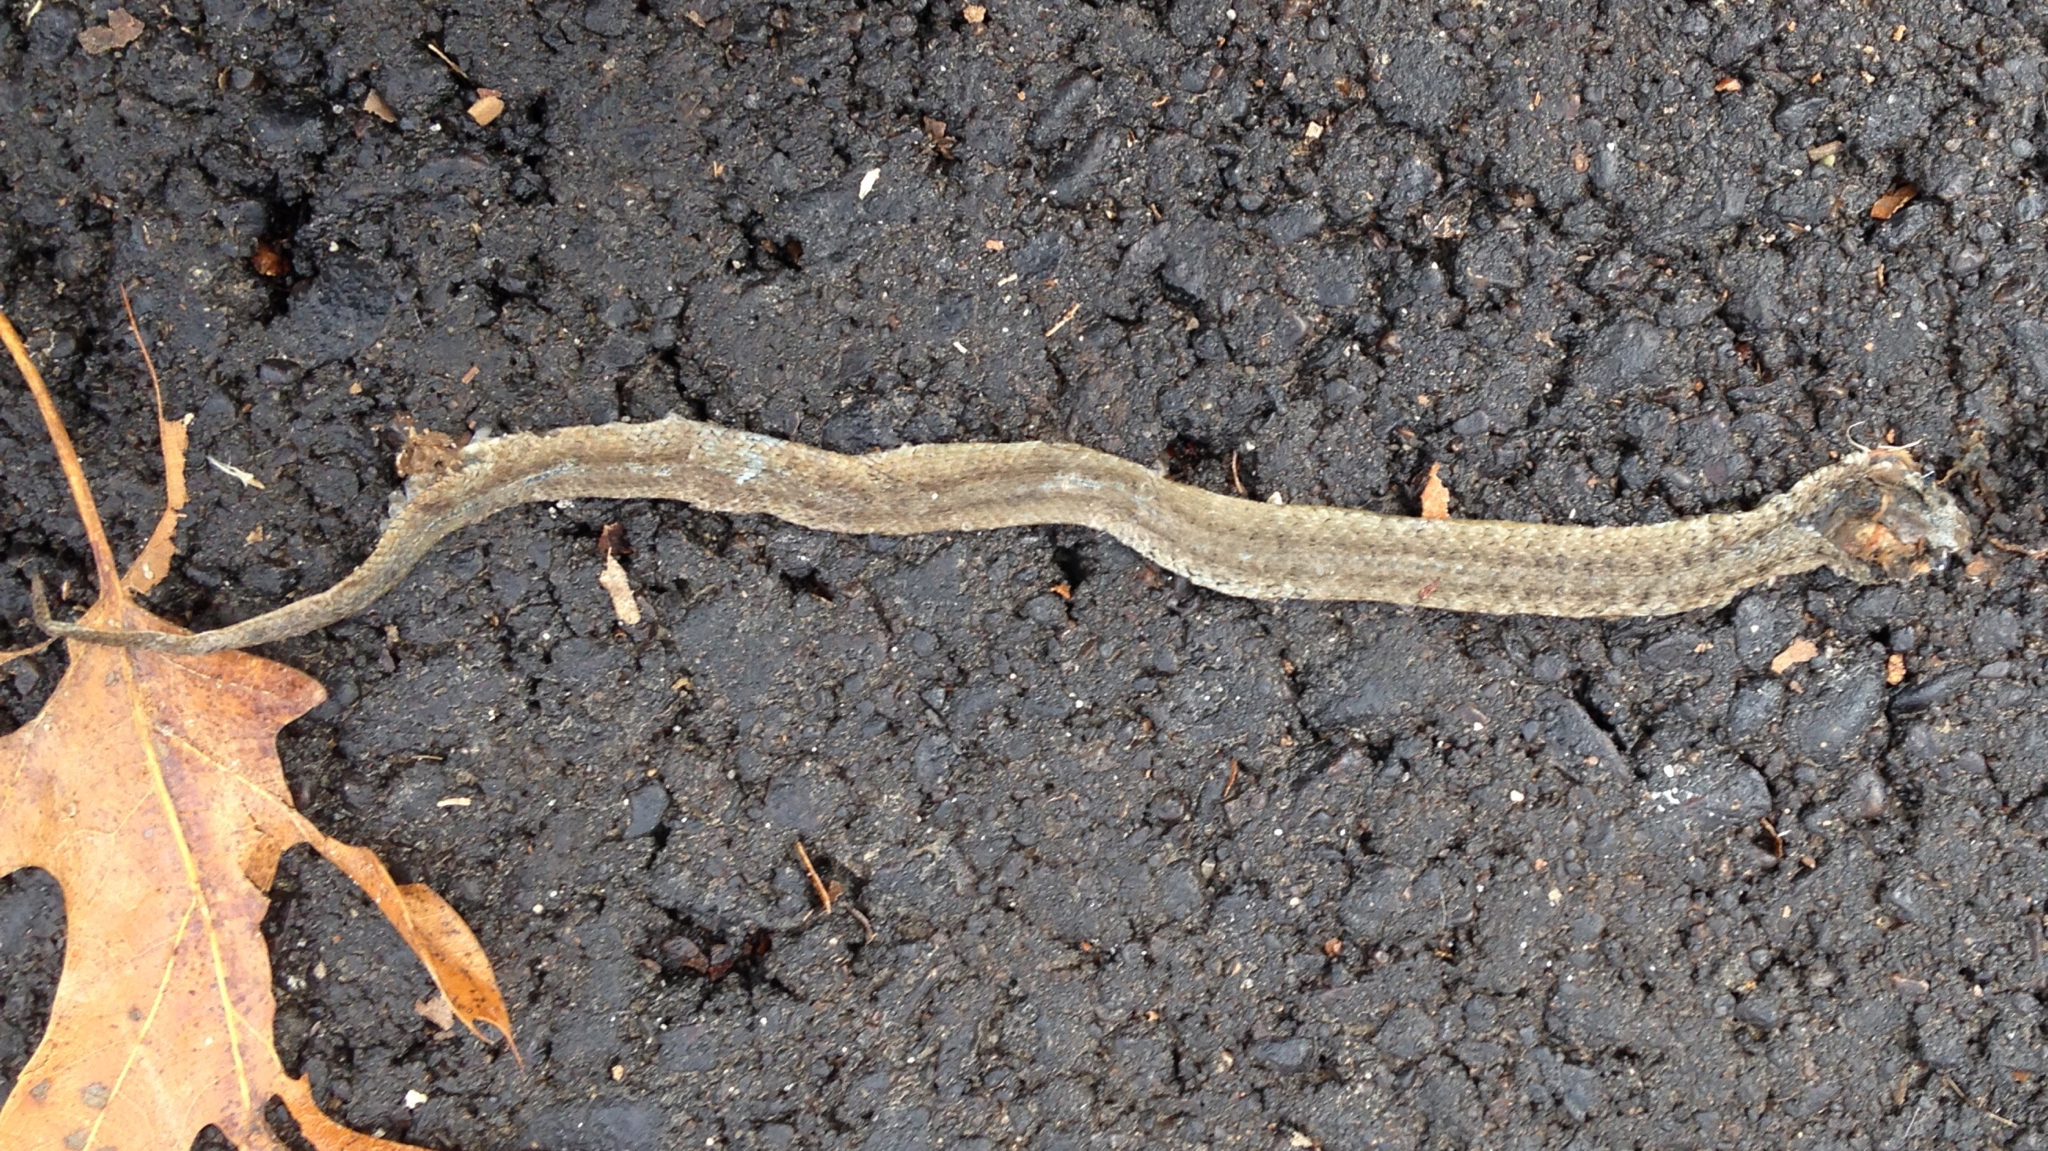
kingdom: Animalia
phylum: Chordata
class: Squamata
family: Colubridae
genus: Storeria
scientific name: Storeria dekayi
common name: (dekay’s) brown snake
